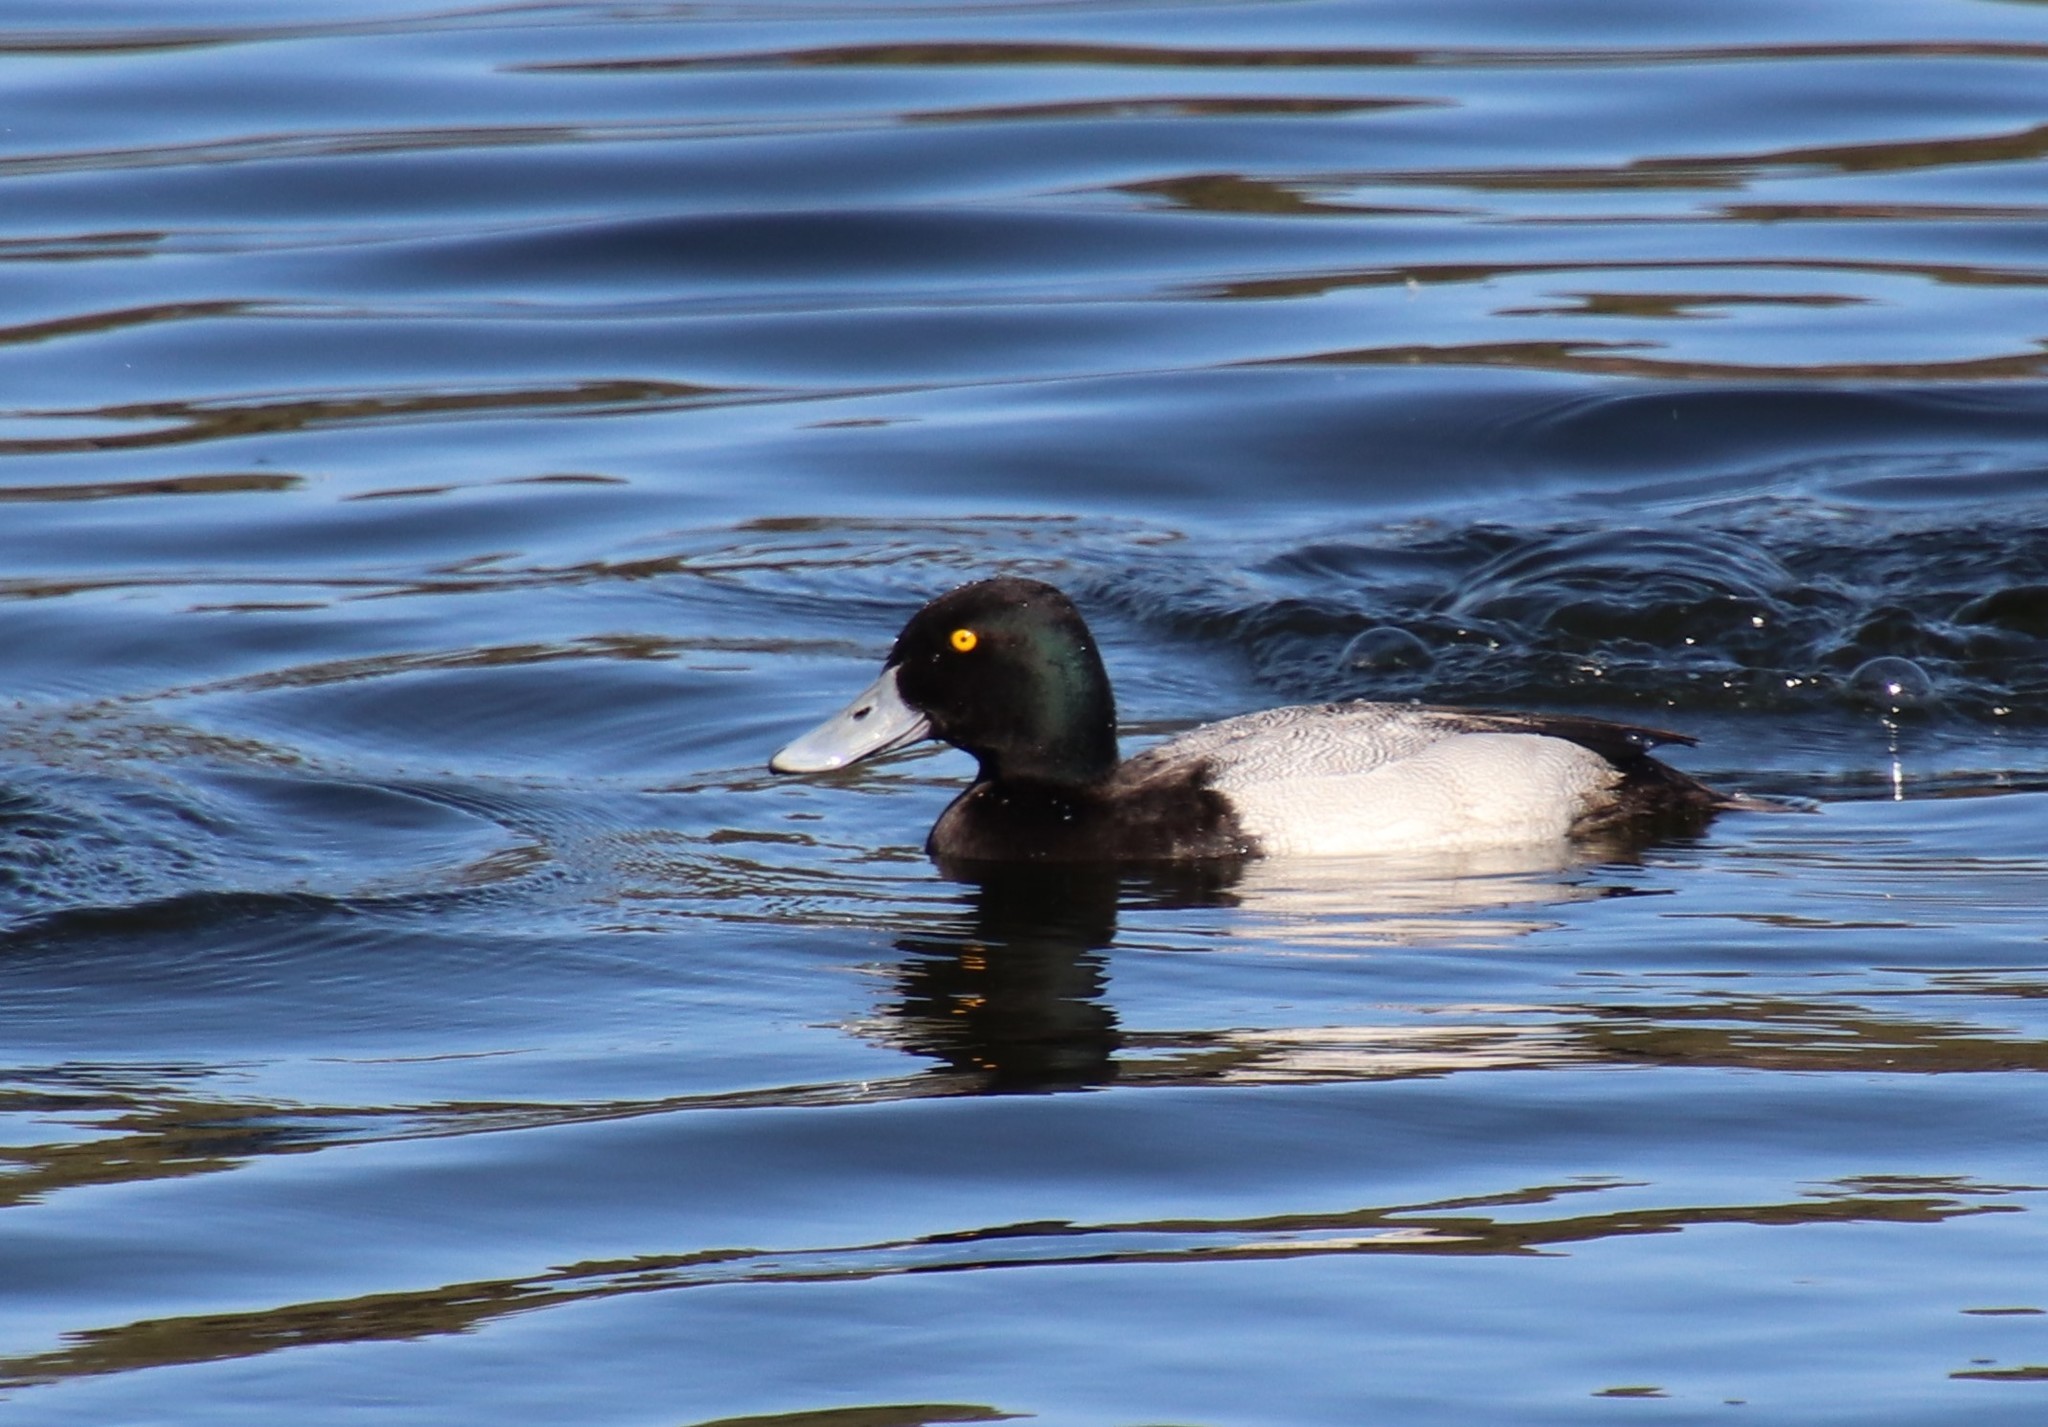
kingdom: Animalia
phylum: Chordata
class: Aves
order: Anseriformes
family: Anatidae
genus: Aythya
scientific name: Aythya affinis
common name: Lesser scaup
